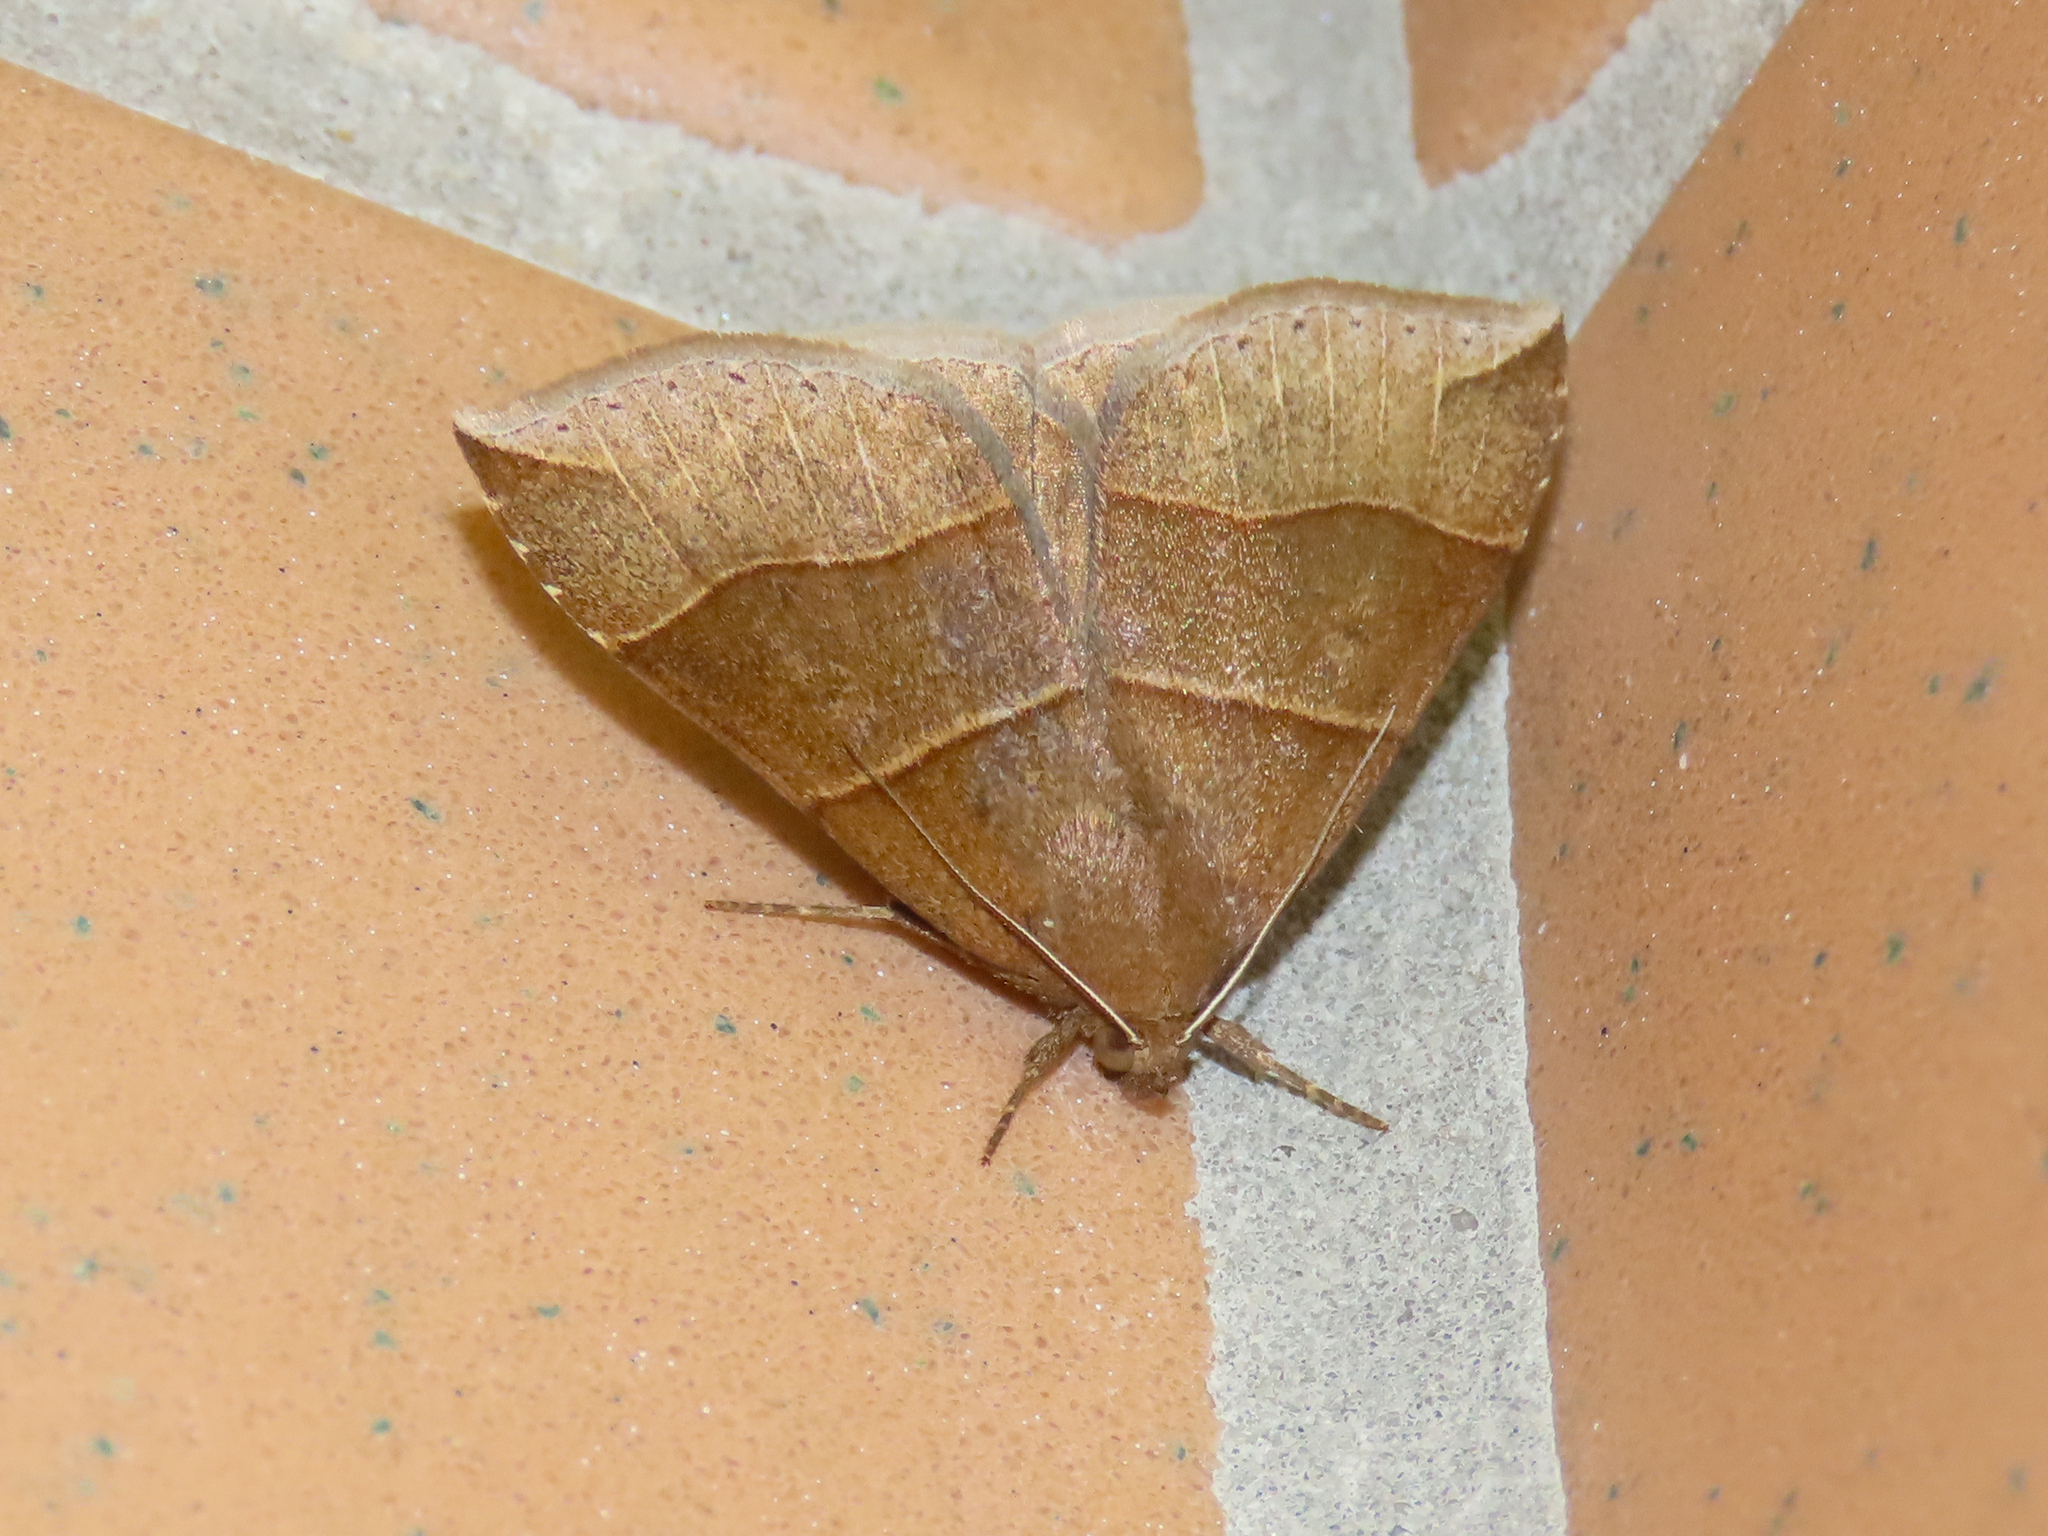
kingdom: Animalia
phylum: Arthropoda
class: Insecta
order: Lepidoptera
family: Erebidae
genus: Parallelia
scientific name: Parallelia bistriaris
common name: Maple looper moth
